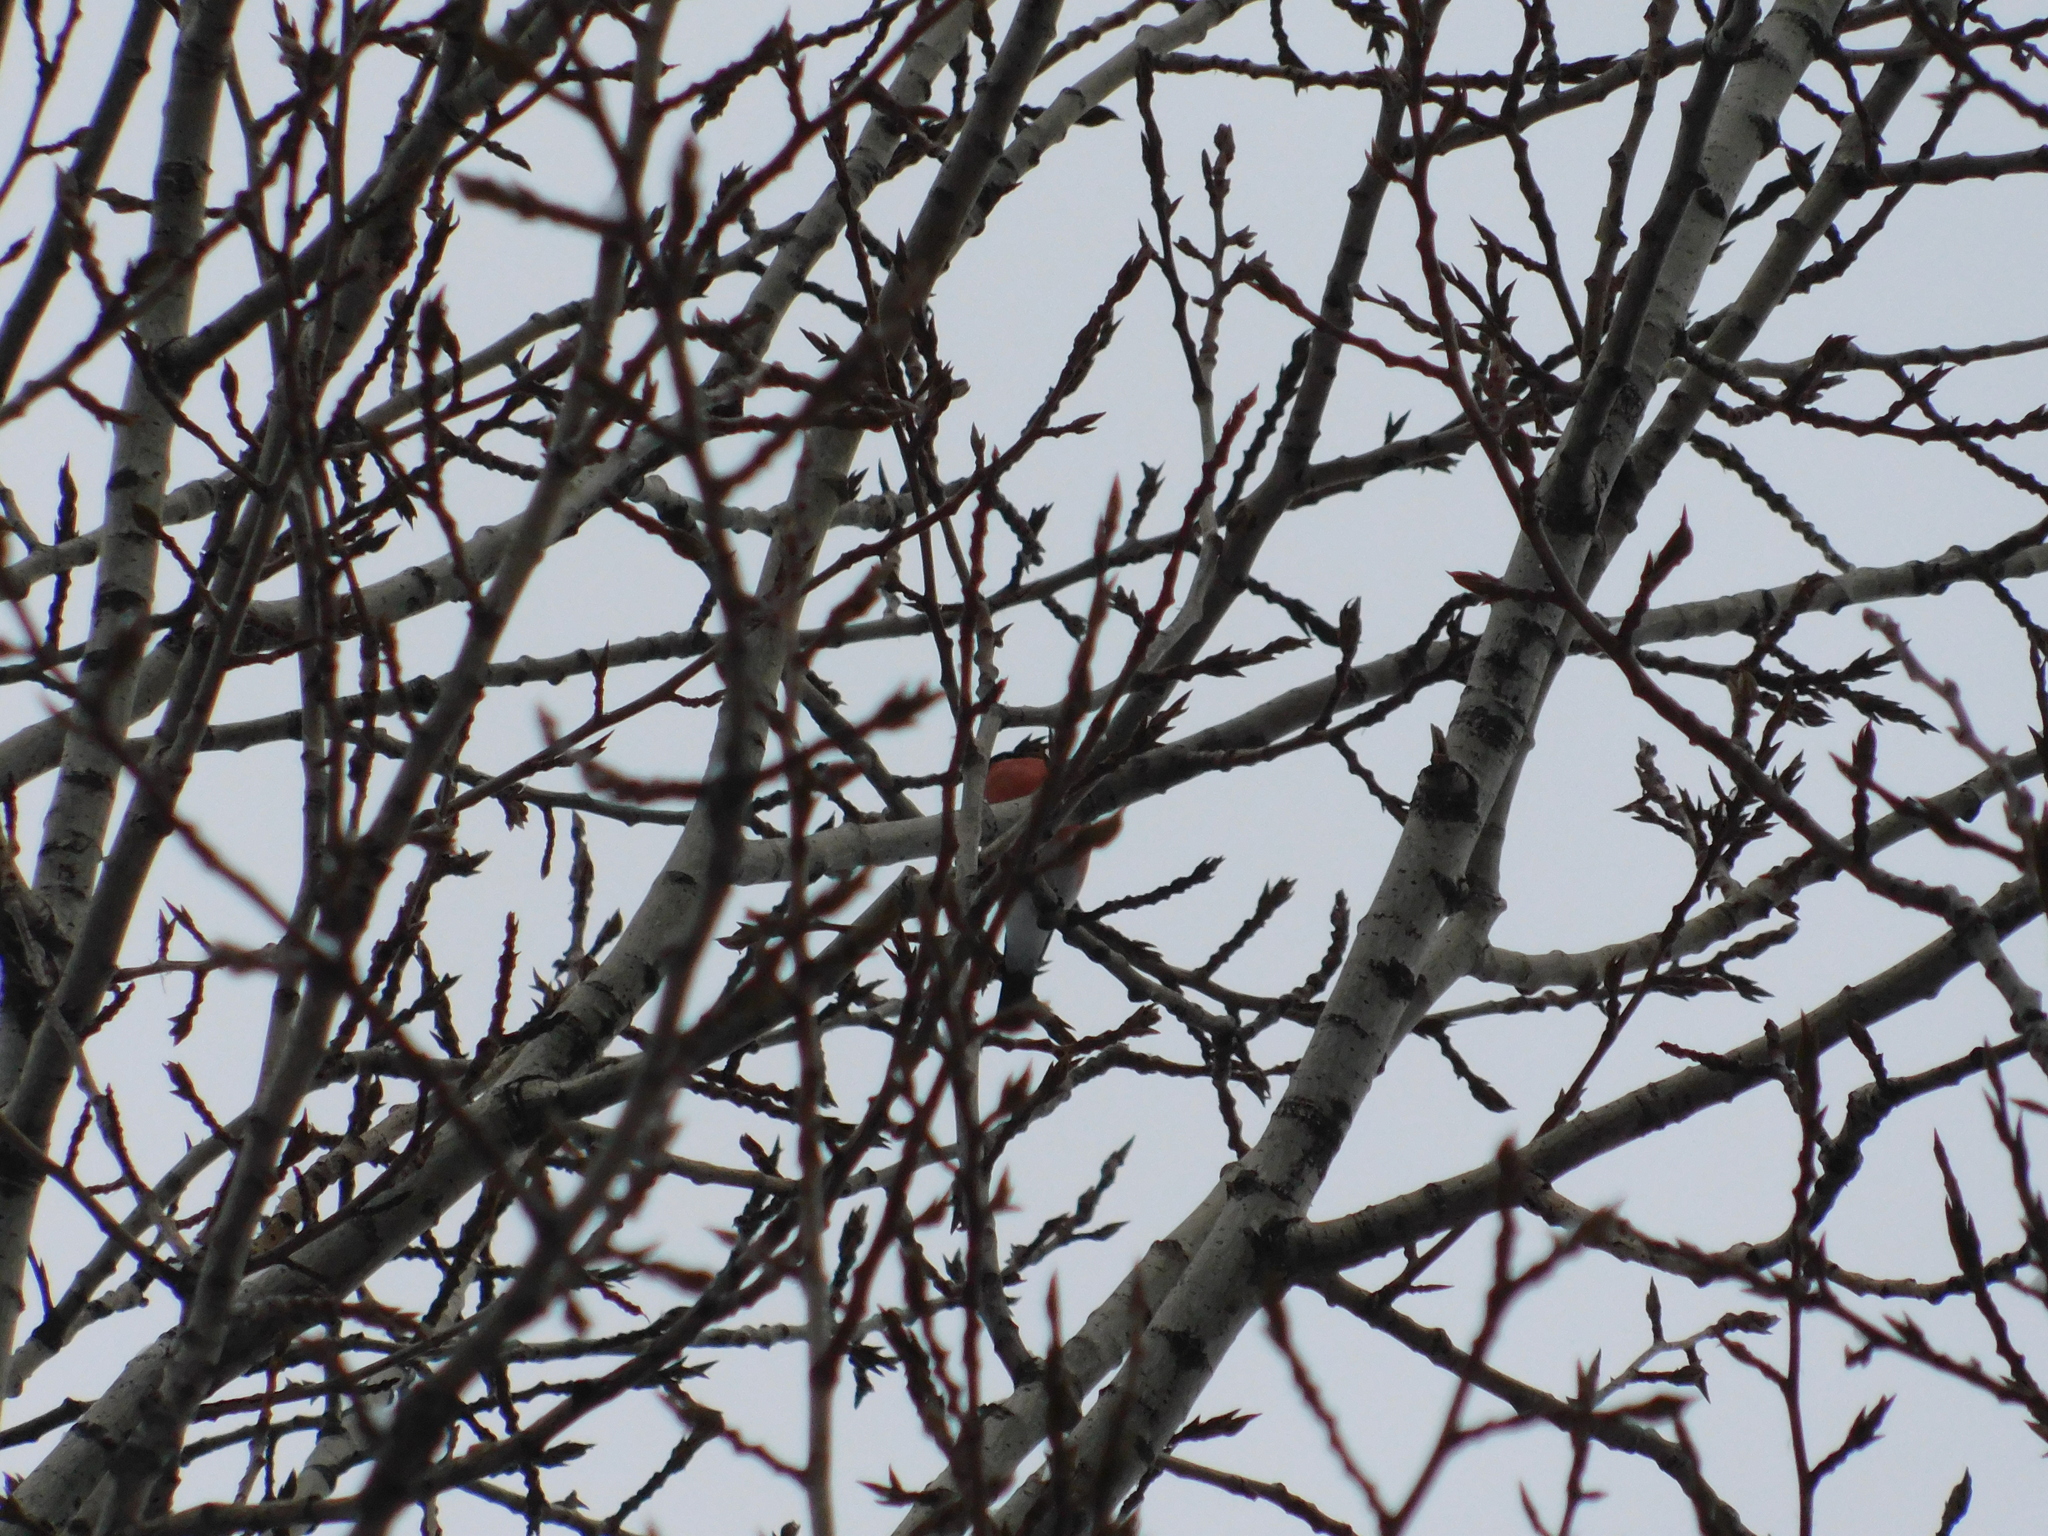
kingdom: Animalia
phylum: Chordata
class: Aves
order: Passeriformes
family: Fringillidae
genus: Pyrrhula
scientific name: Pyrrhula pyrrhula
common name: Eurasian bullfinch
